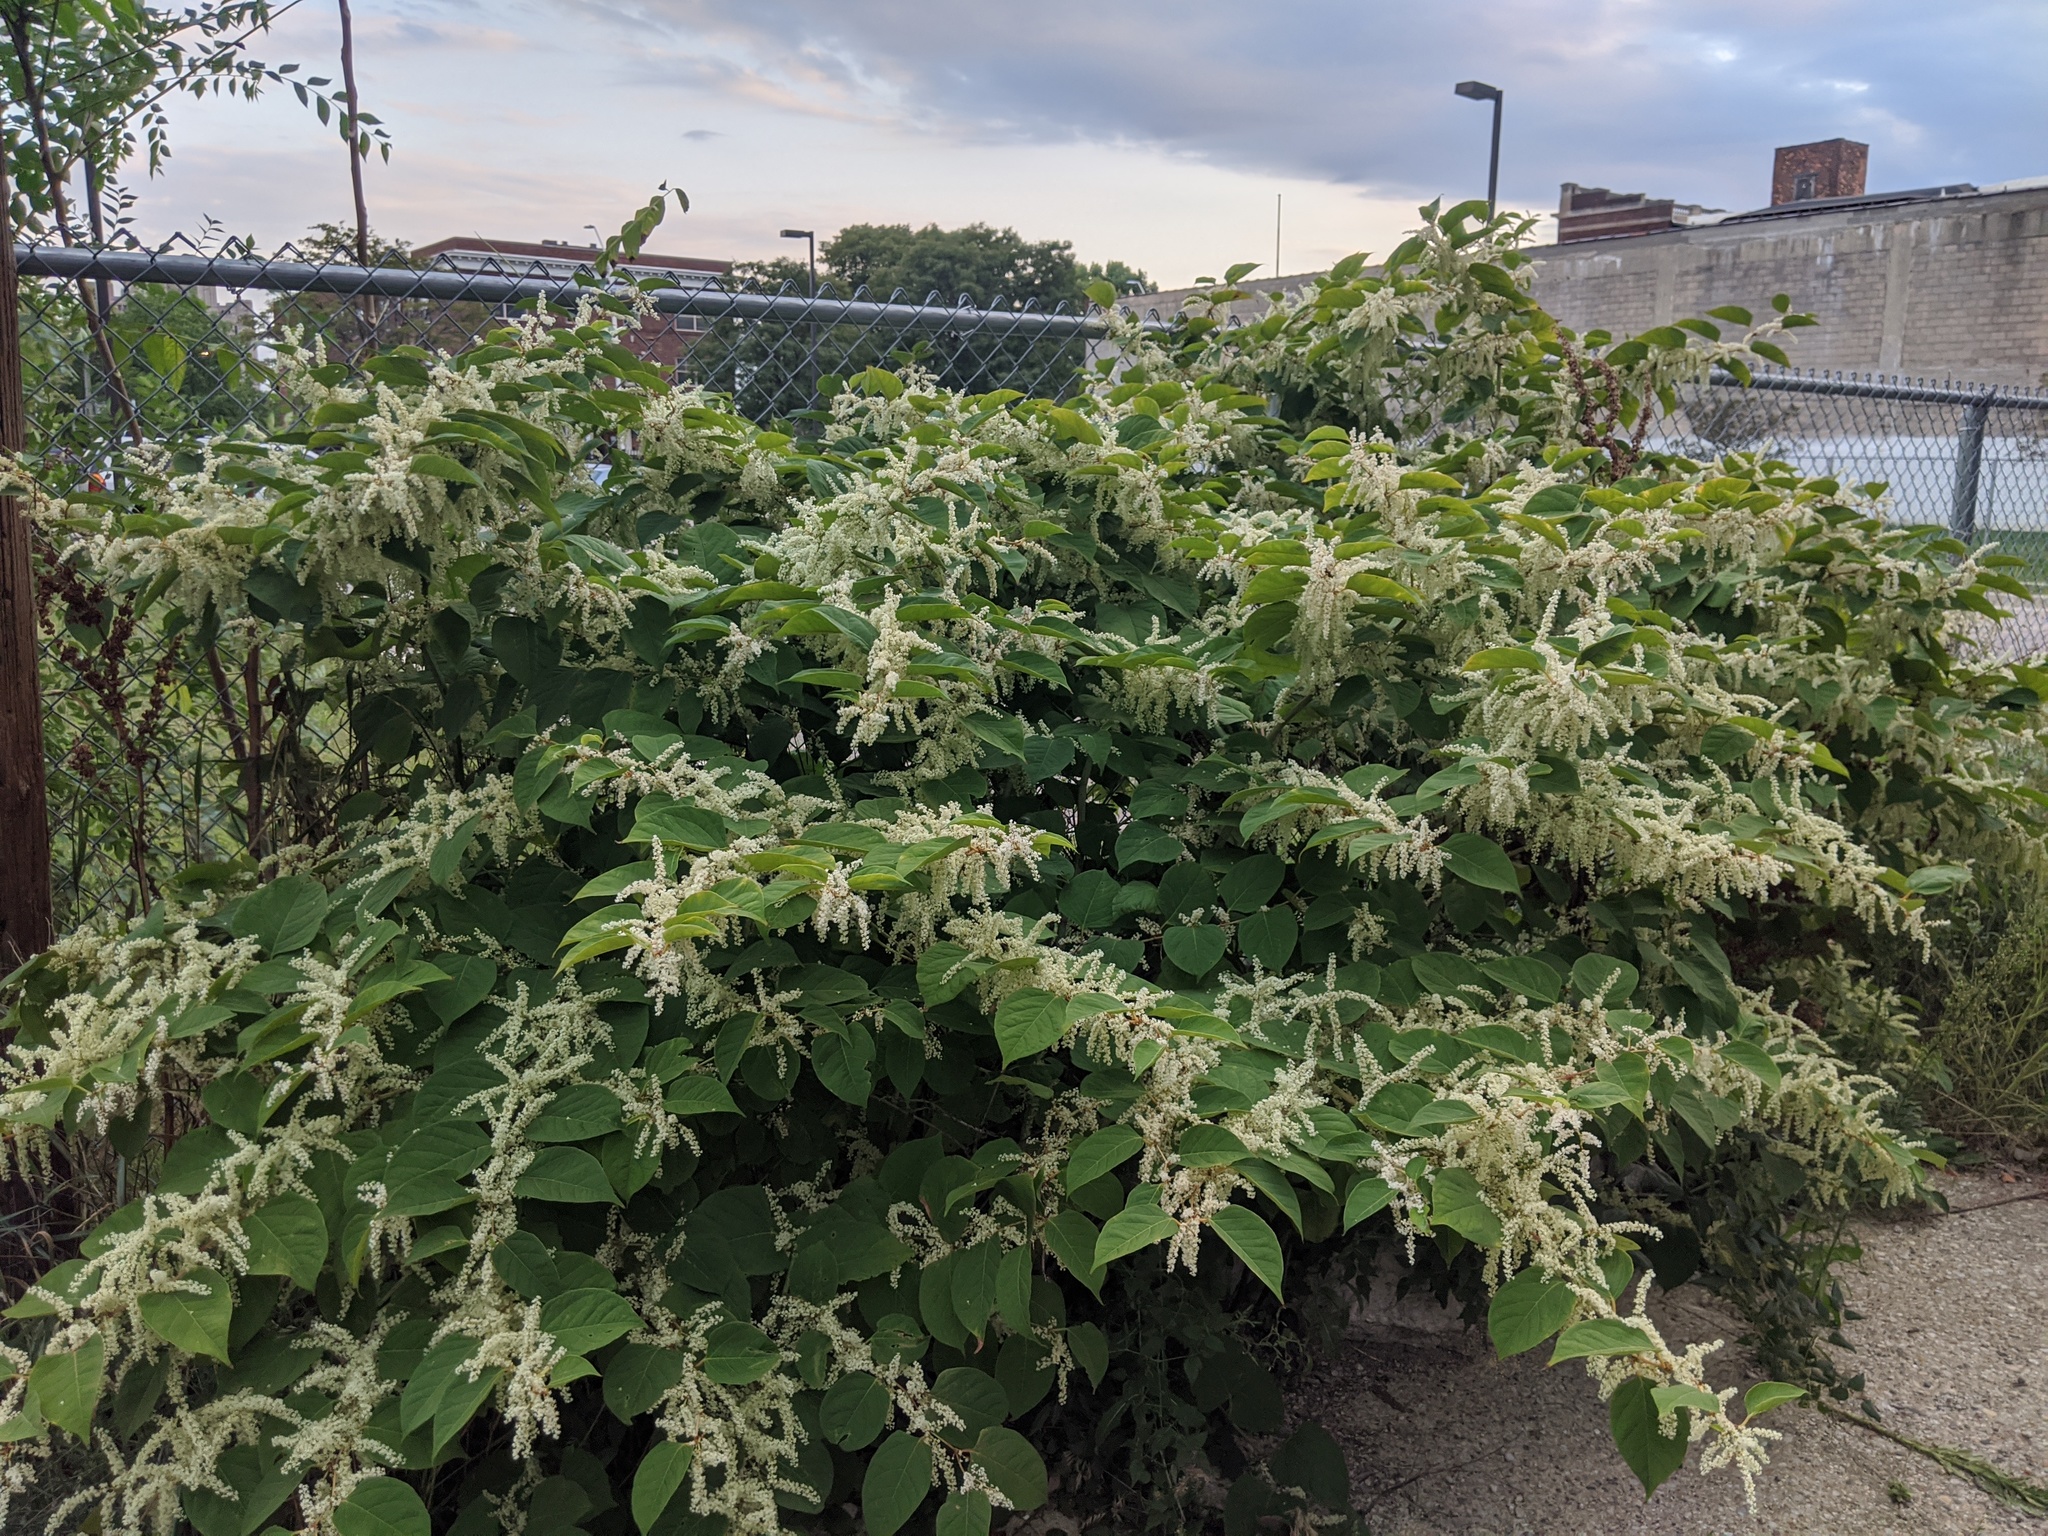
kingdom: Plantae
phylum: Tracheophyta
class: Magnoliopsida
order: Caryophyllales
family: Polygonaceae
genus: Reynoutria
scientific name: Reynoutria japonica
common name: Japanese knotweed
